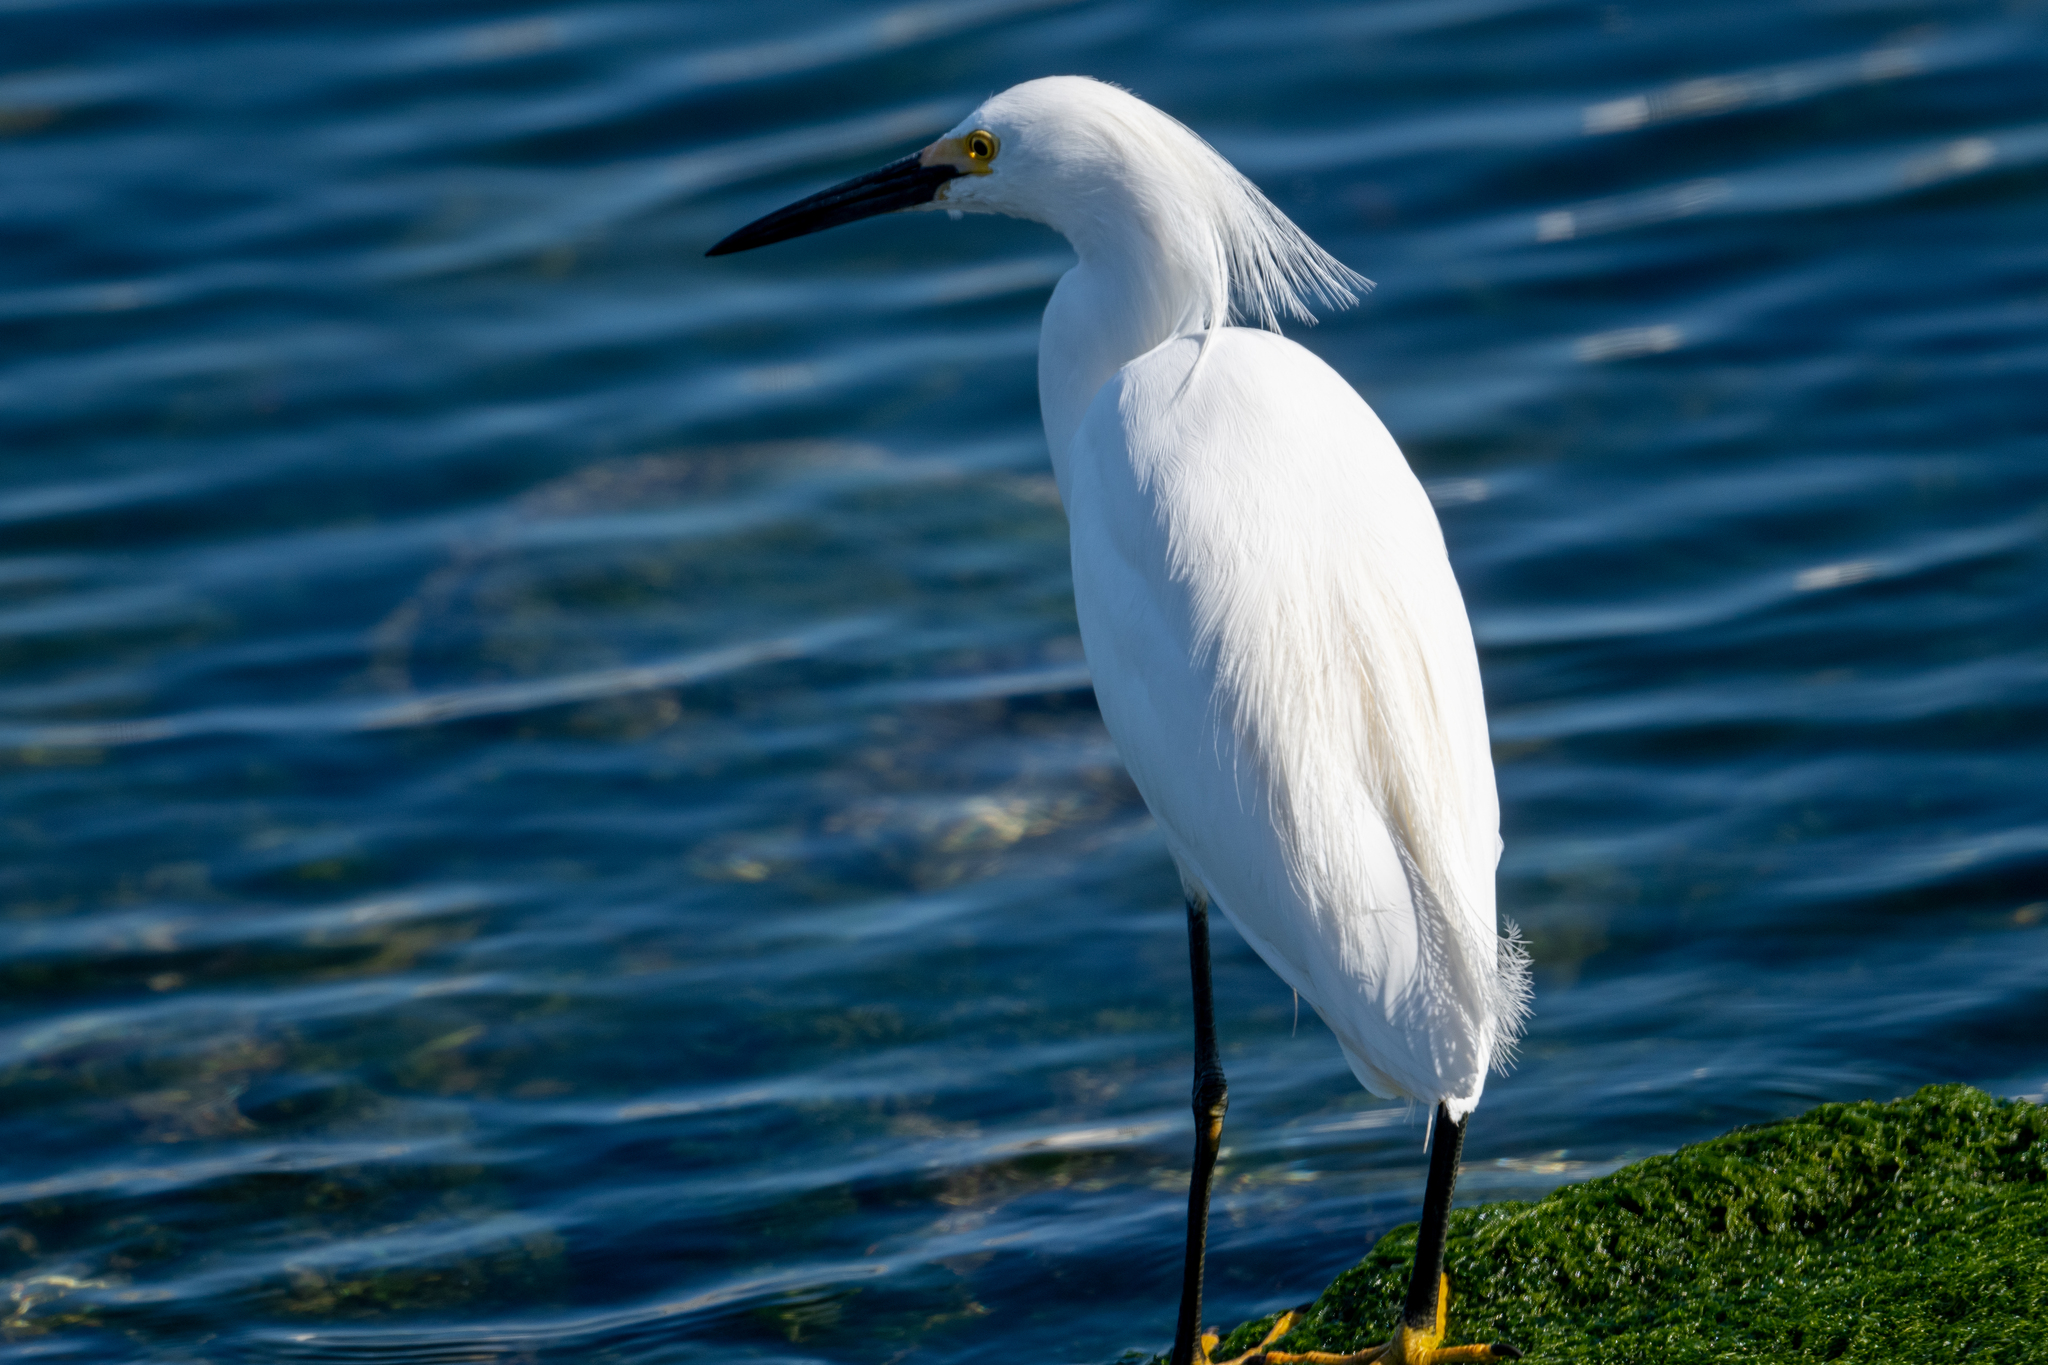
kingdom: Animalia
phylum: Chordata
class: Aves
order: Pelecaniformes
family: Ardeidae
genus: Egretta
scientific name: Egretta thula
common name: Snowy egret
